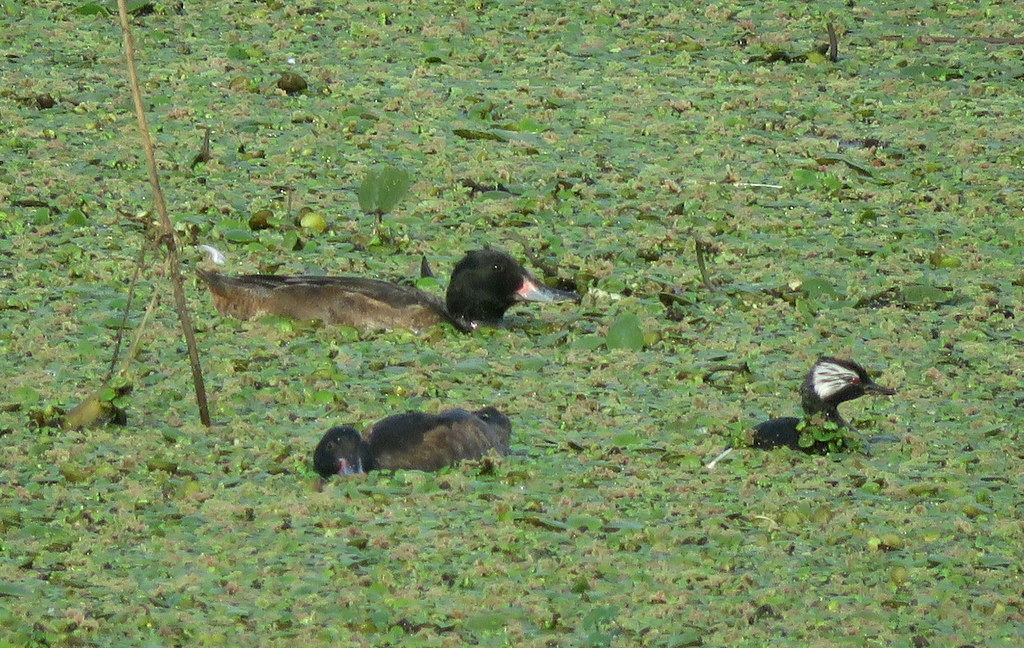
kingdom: Animalia
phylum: Chordata
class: Aves
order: Anseriformes
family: Anatidae
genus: Heteronetta
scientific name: Heteronetta atricapilla
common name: Black-headed duck
